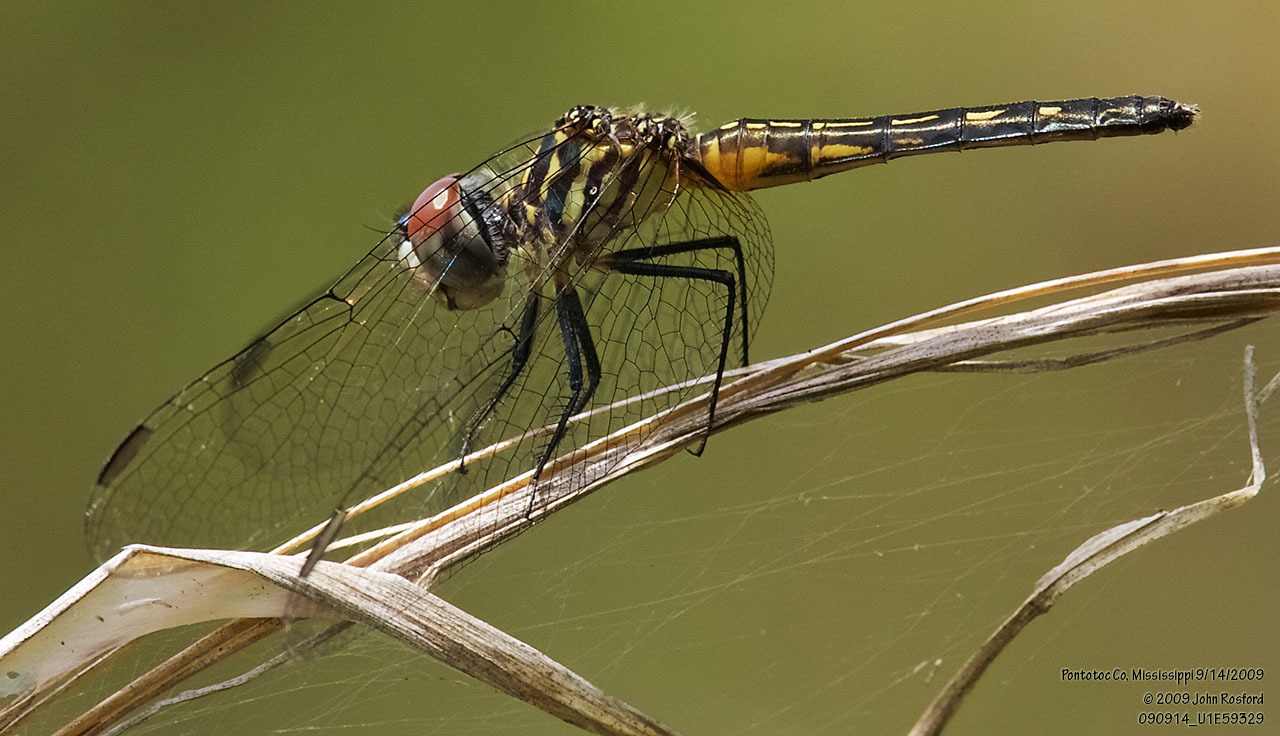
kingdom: Animalia
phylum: Arthropoda
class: Insecta
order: Odonata
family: Libellulidae
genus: Pachydiplax
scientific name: Pachydiplax longipennis
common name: Blue dasher
